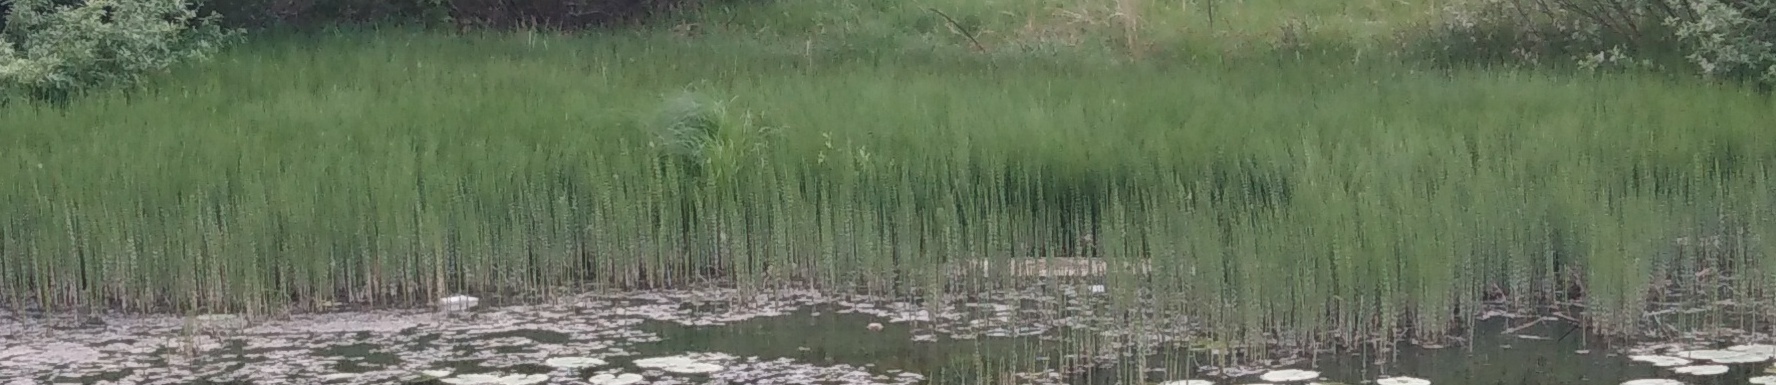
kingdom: Plantae
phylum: Tracheophyta
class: Polypodiopsida
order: Equisetales
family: Equisetaceae
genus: Equisetum
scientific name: Equisetum fluviatile
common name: Water horsetail
